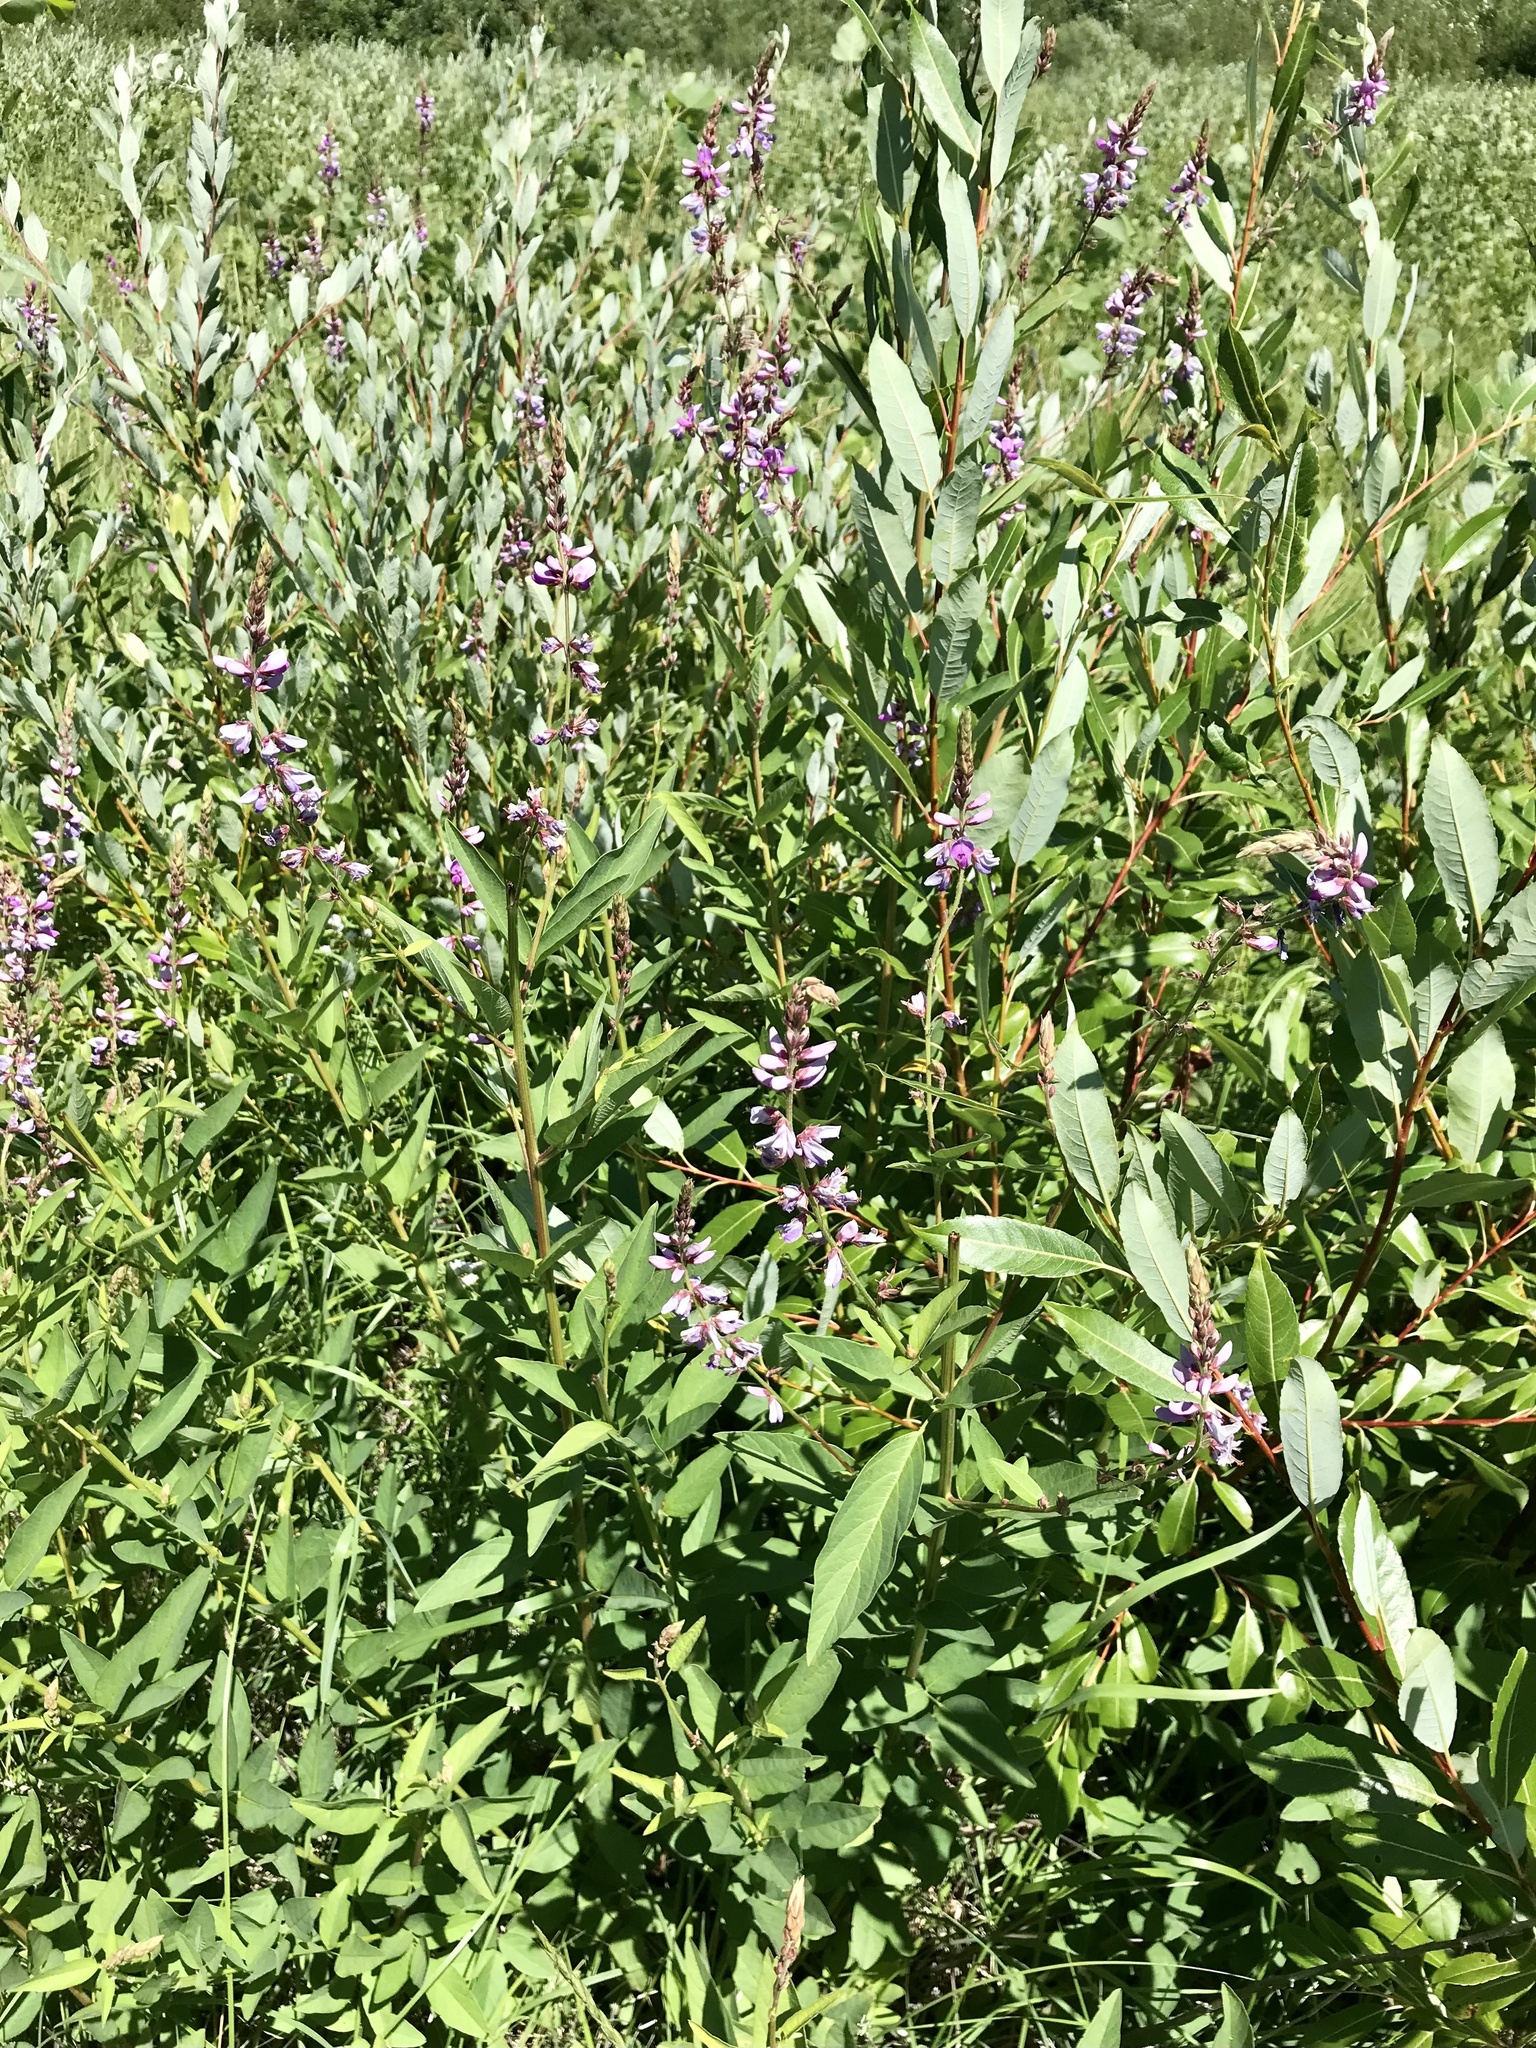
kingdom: Plantae
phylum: Tracheophyta
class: Magnoliopsida
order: Fabales
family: Fabaceae
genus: Desmodium
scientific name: Desmodium canadense
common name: Canada tick-trefoil
